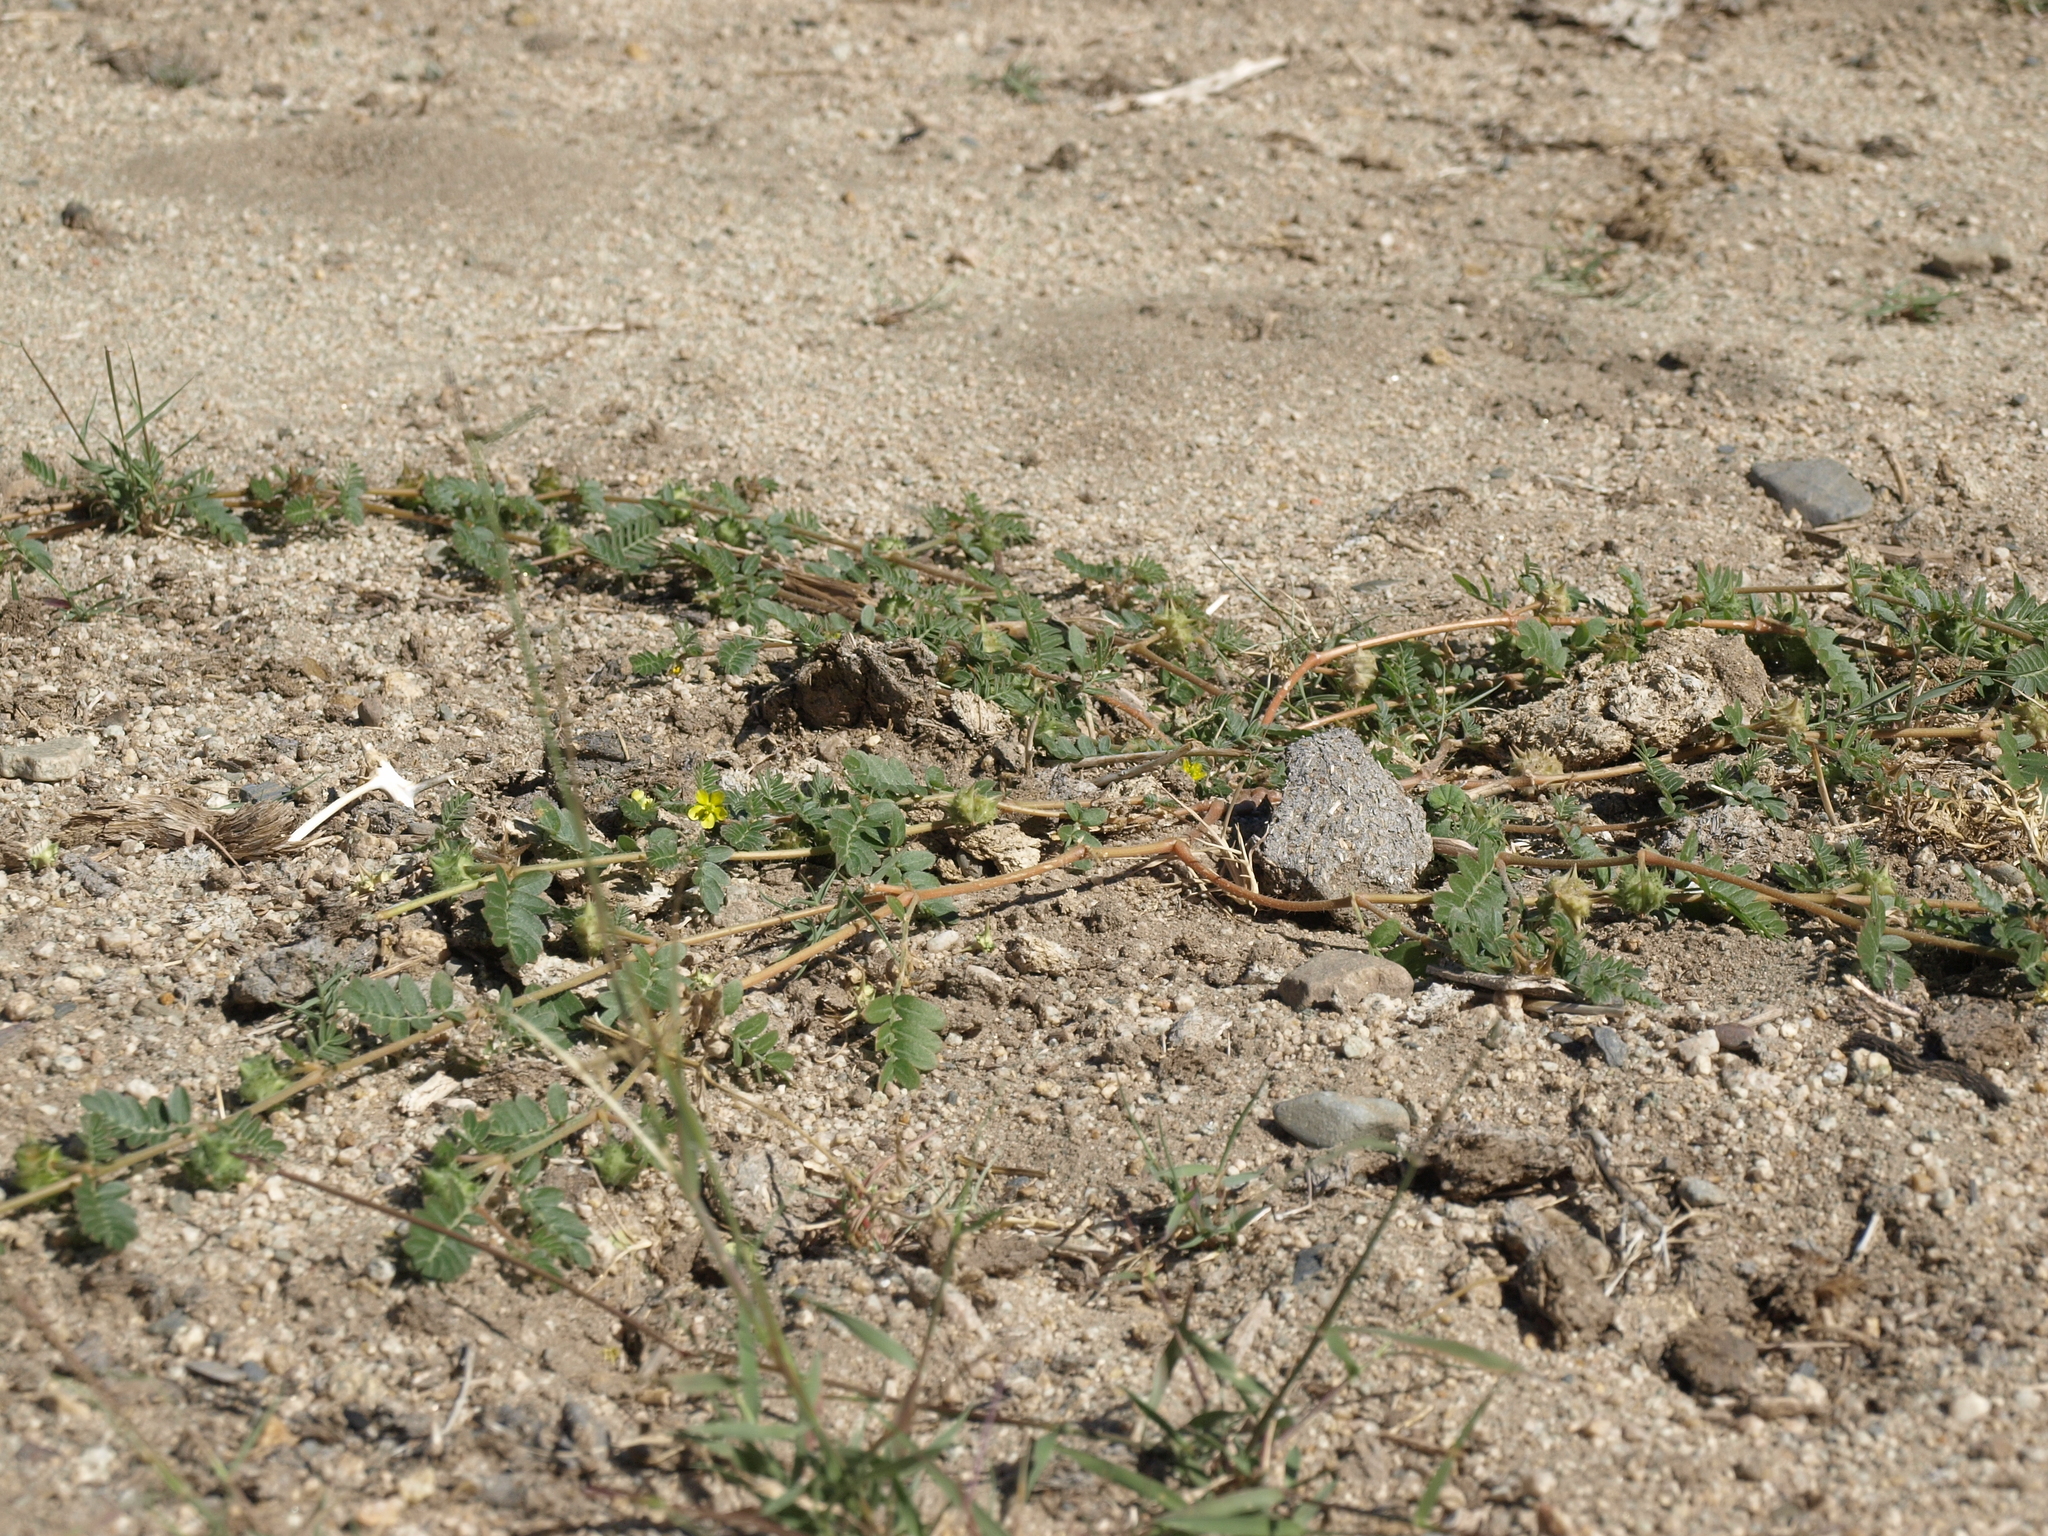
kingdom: Plantae
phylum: Tracheophyta
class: Magnoliopsida
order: Zygophyllales
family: Zygophyllaceae
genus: Tribulus
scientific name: Tribulus terrestris
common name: Puncturevine
